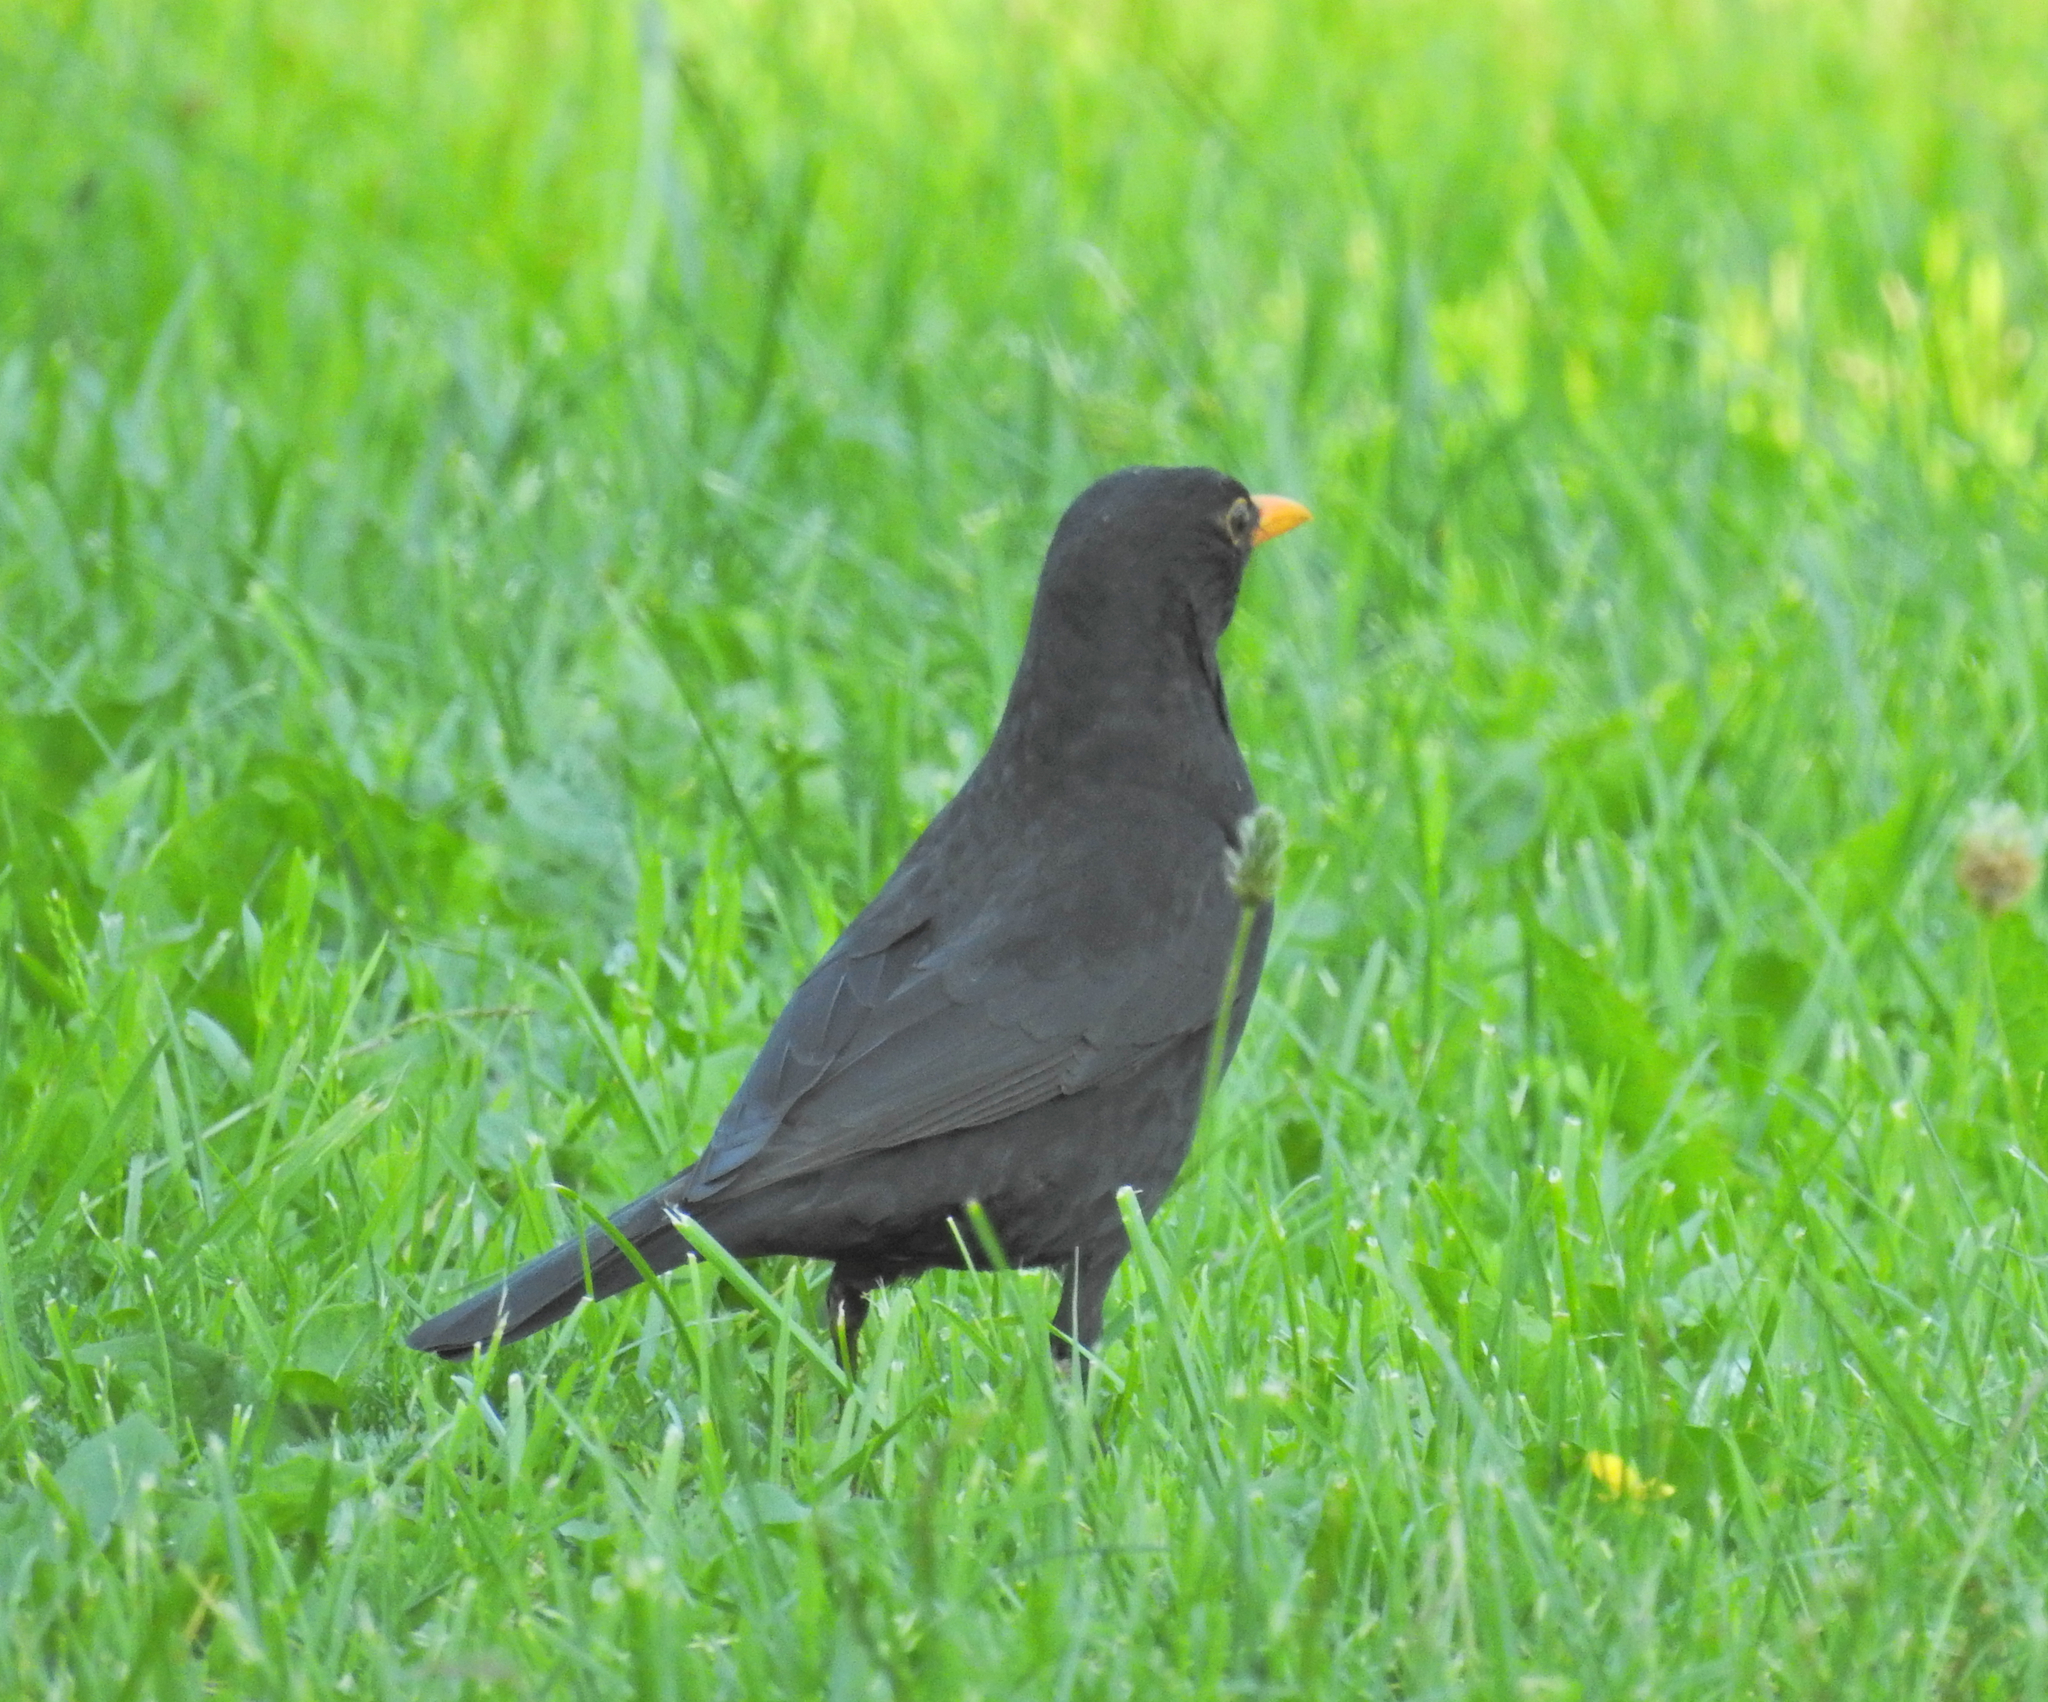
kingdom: Animalia
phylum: Chordata
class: Aves
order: Passeriformes
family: Turdidae
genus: Turdus
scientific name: Turdus merula
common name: Common blackbird
